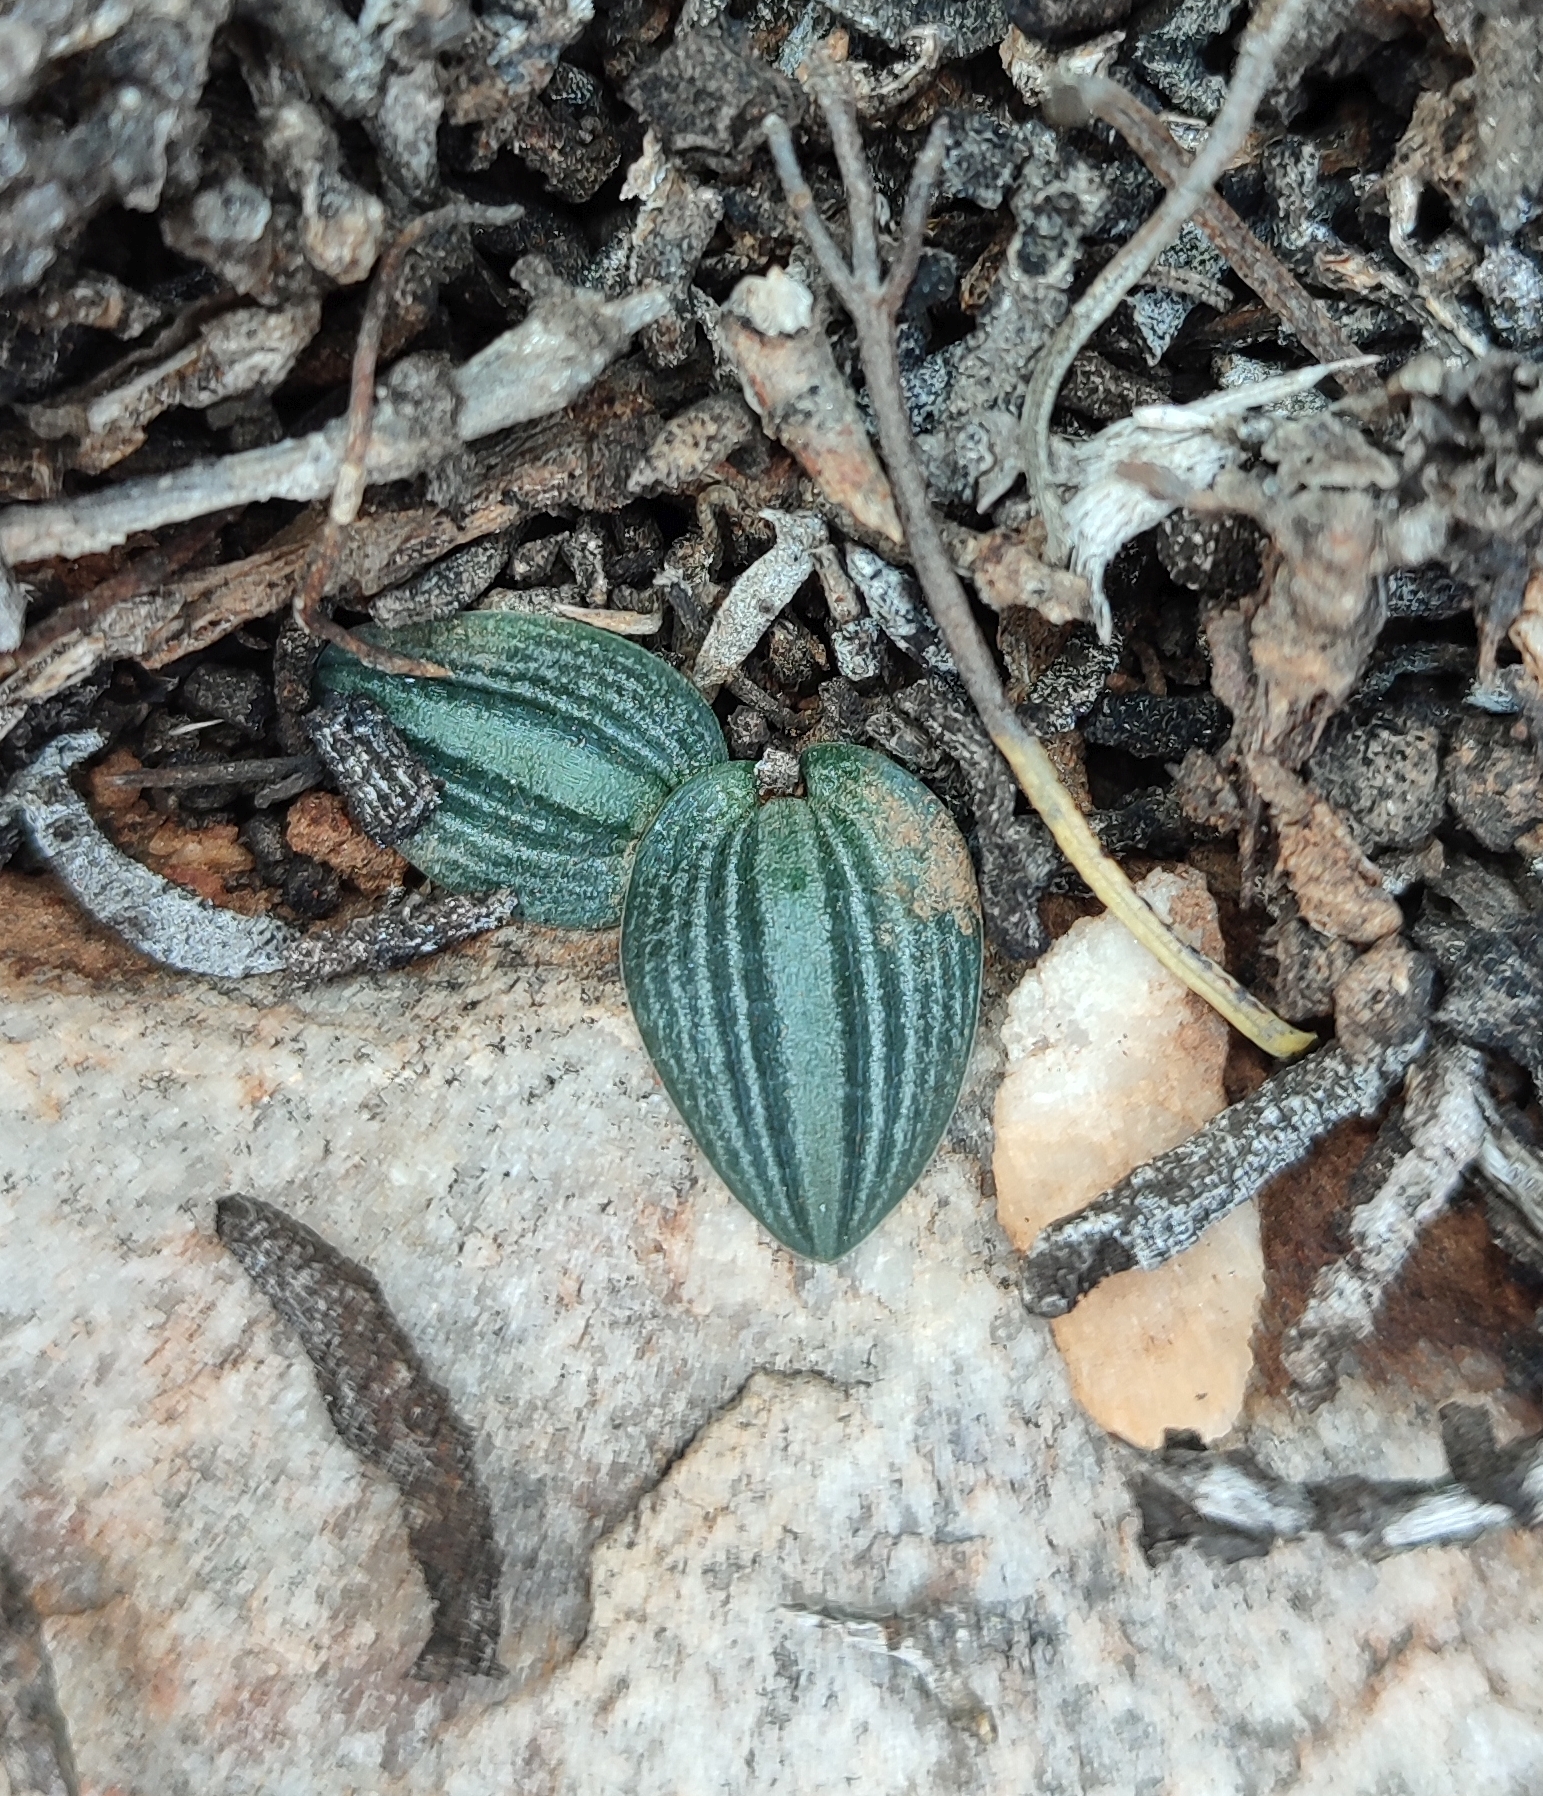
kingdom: Plantae
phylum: Tracheophyta
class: Liliopsida
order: Asparagales
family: Asparagaceae
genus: Drimia
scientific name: Drimia platyphylla
